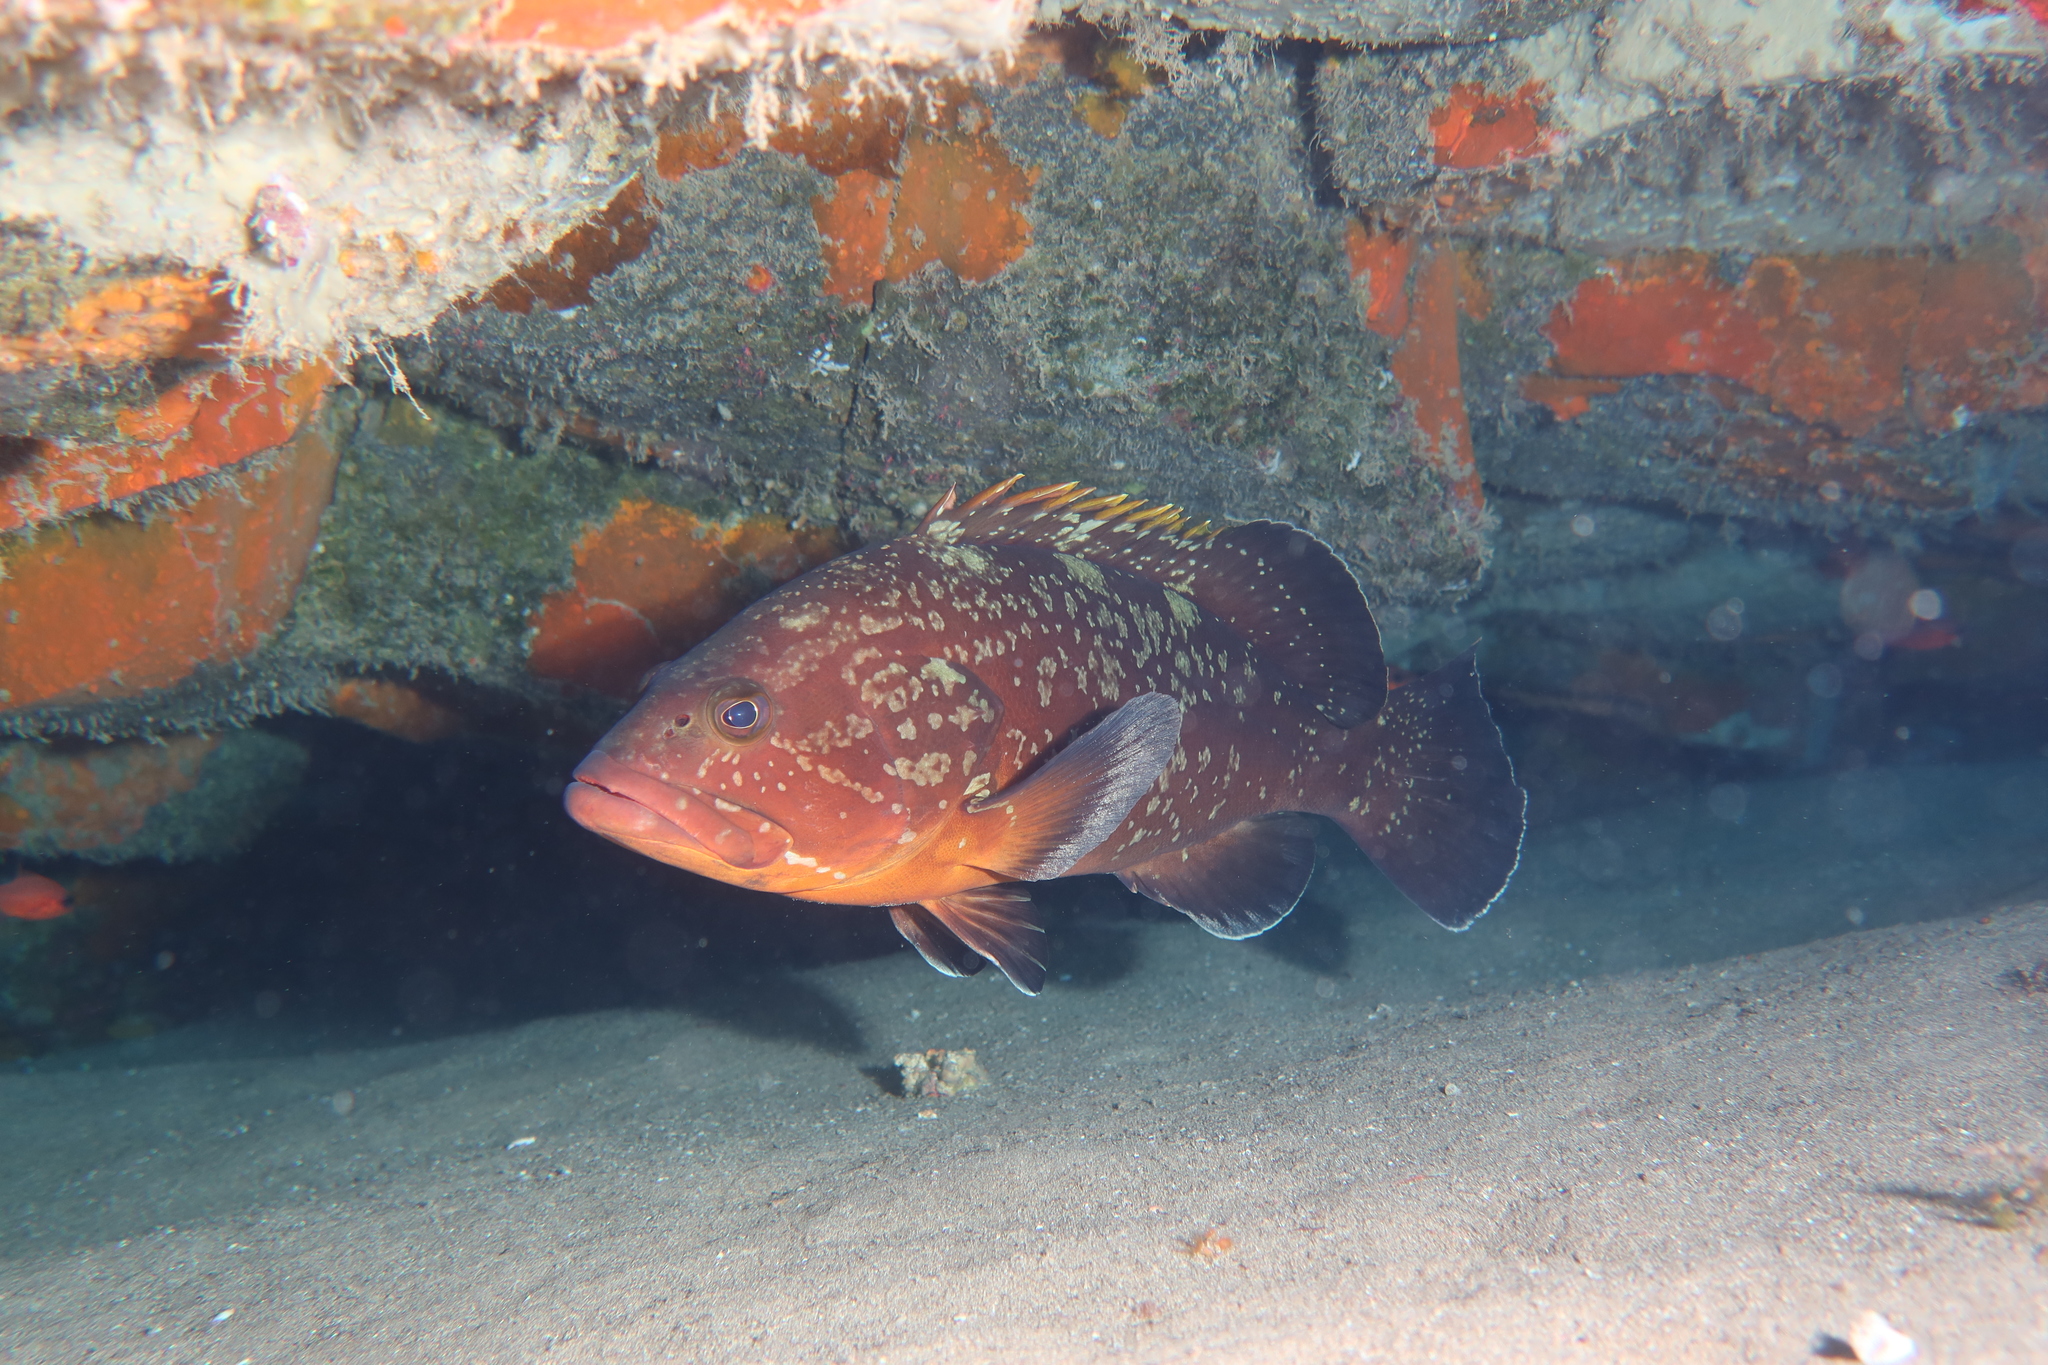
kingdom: Animalia
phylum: Chordata
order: Perciformes
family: Serranidae
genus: Epinephelus
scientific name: Epinephelus marginatus
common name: Dusky grouper
